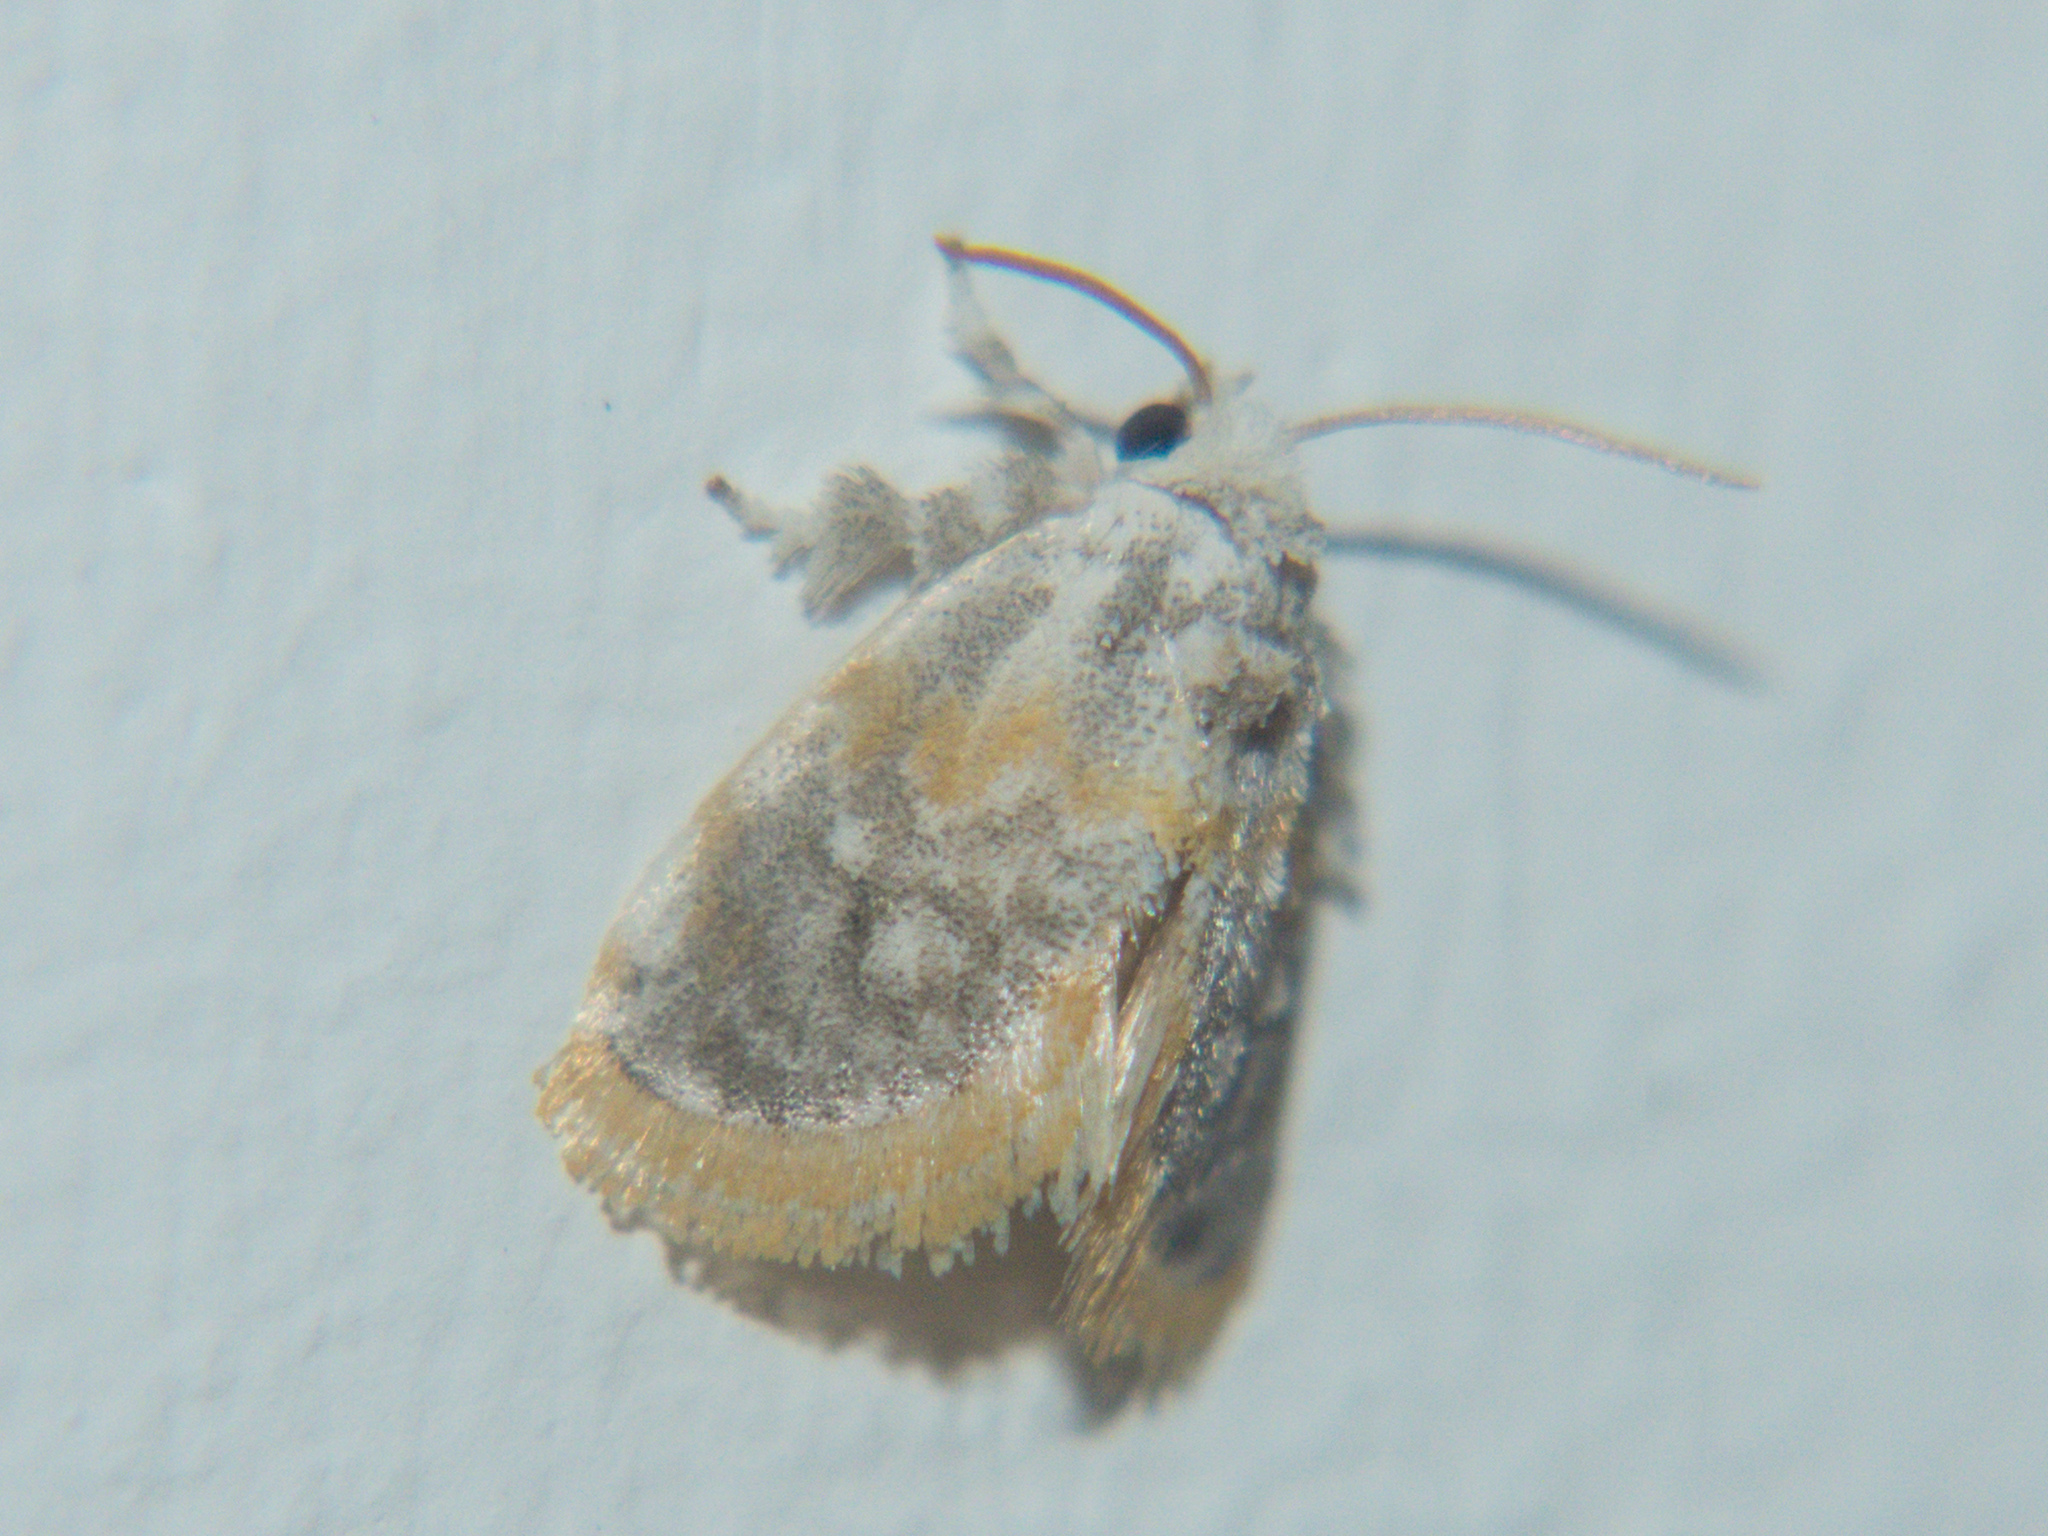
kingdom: Animalia
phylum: Arthropoda
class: Insecta
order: Lepidoptera
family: Limacodidae
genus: Kitanola
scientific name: Kitanola brachygnatha
